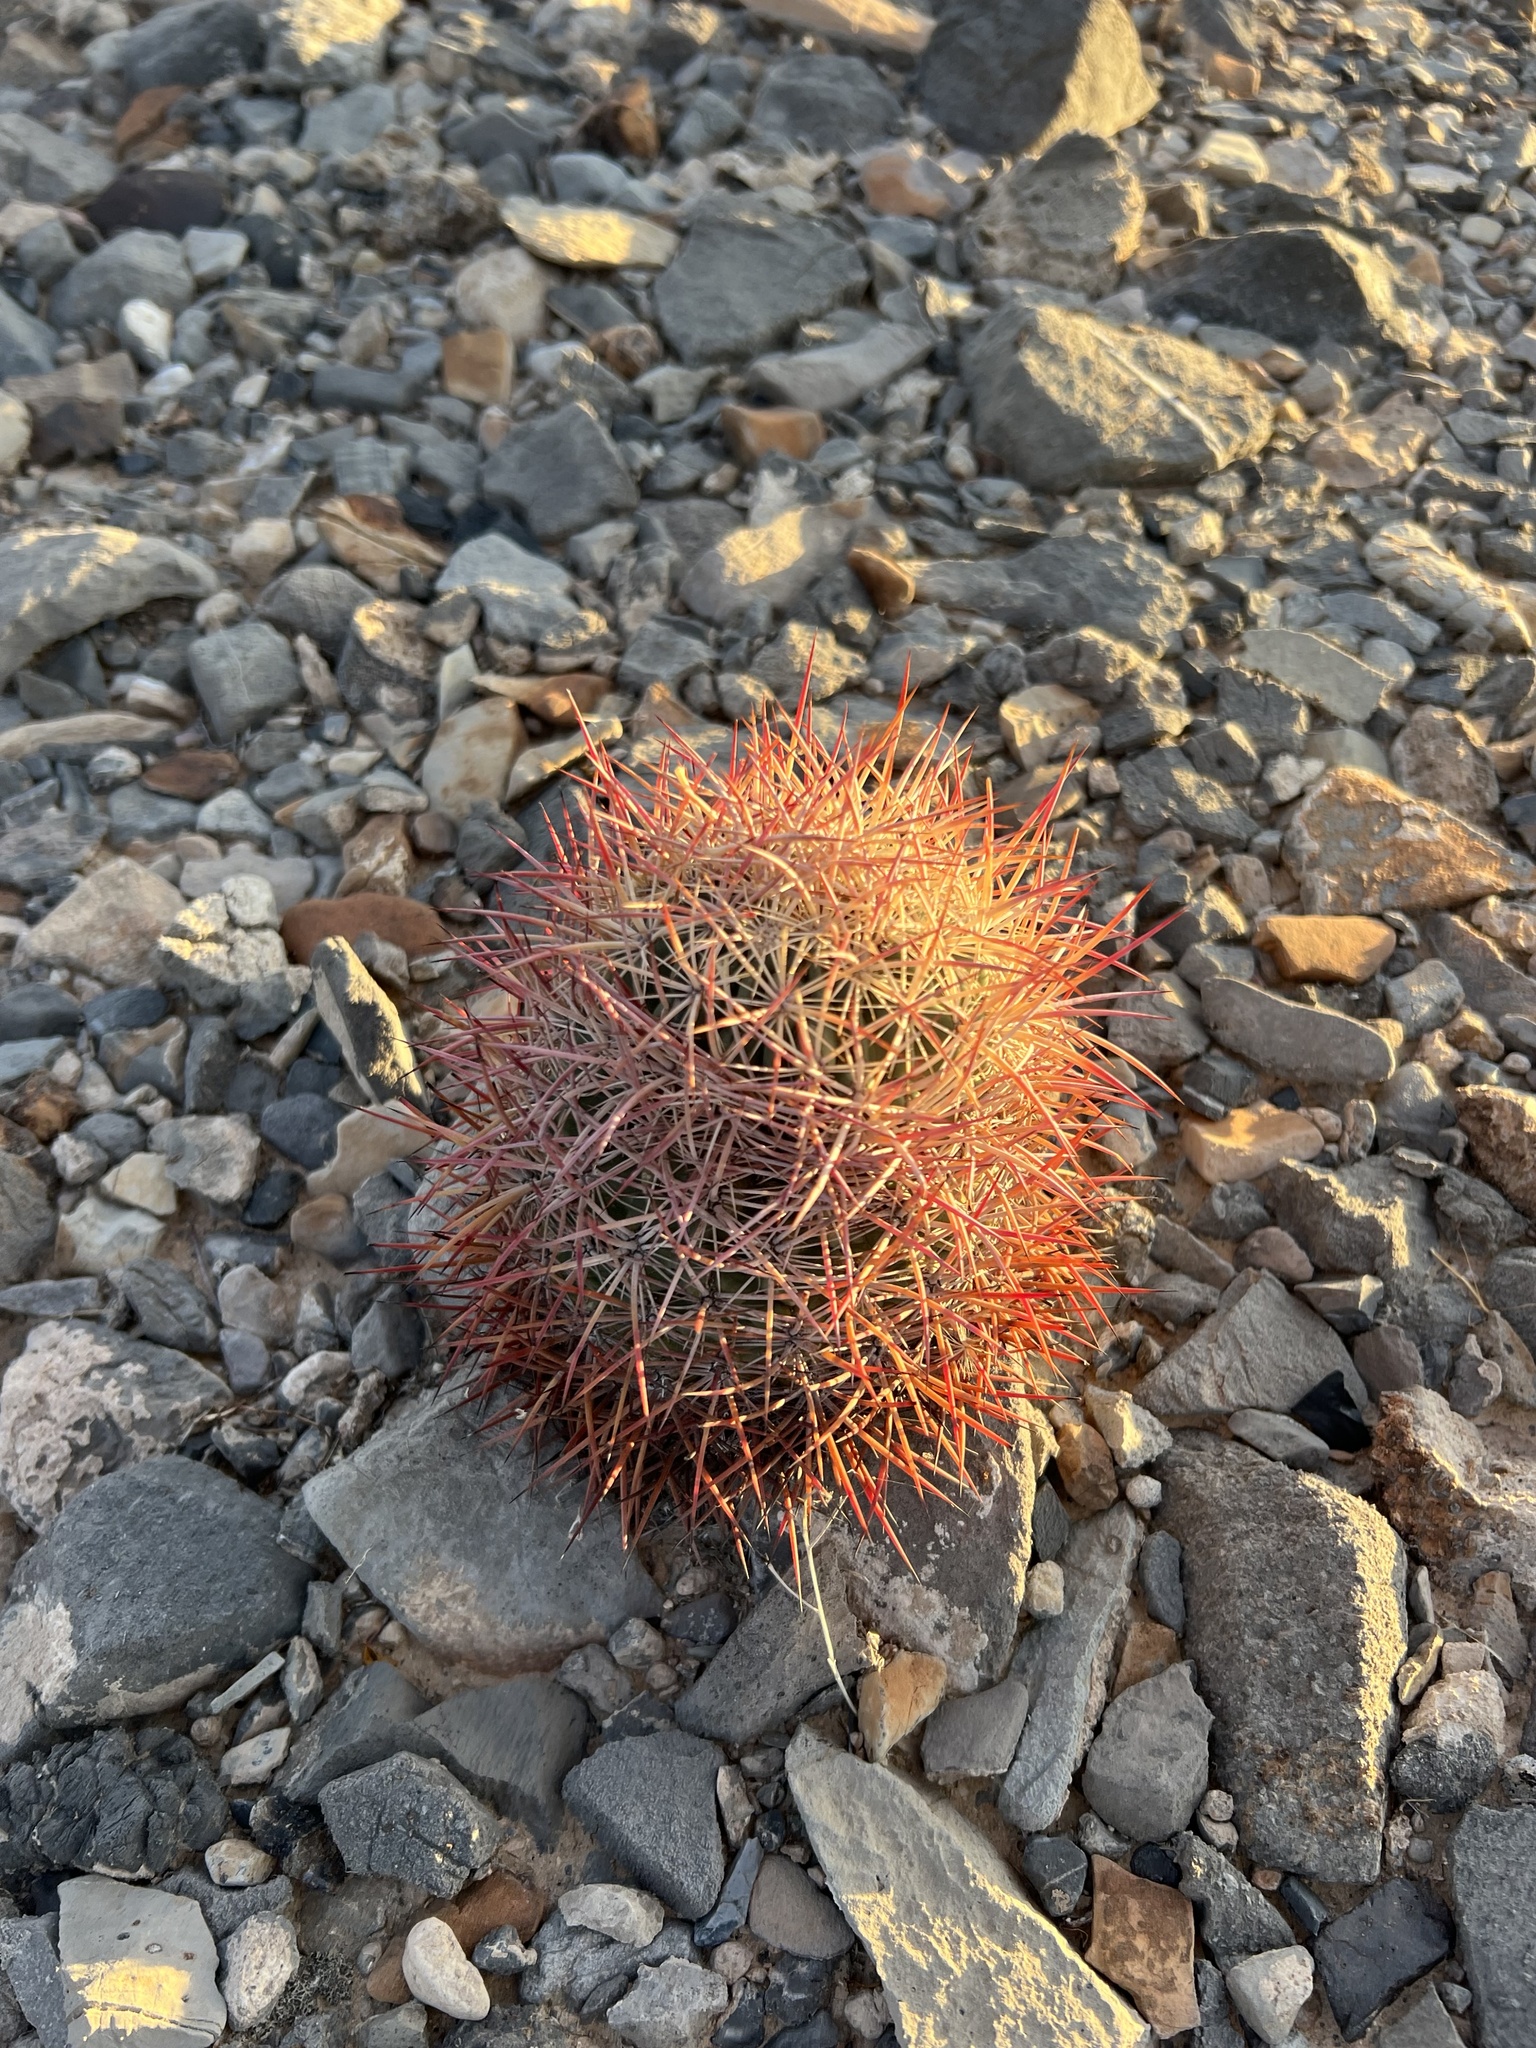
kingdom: Plantae
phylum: Tracheophyta
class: Magnoliopsida
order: Caryophyllales
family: Cactaceae
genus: Sclerocactus
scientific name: Sclerocactus johnsonii
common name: Eight-spine fishhook cactus
